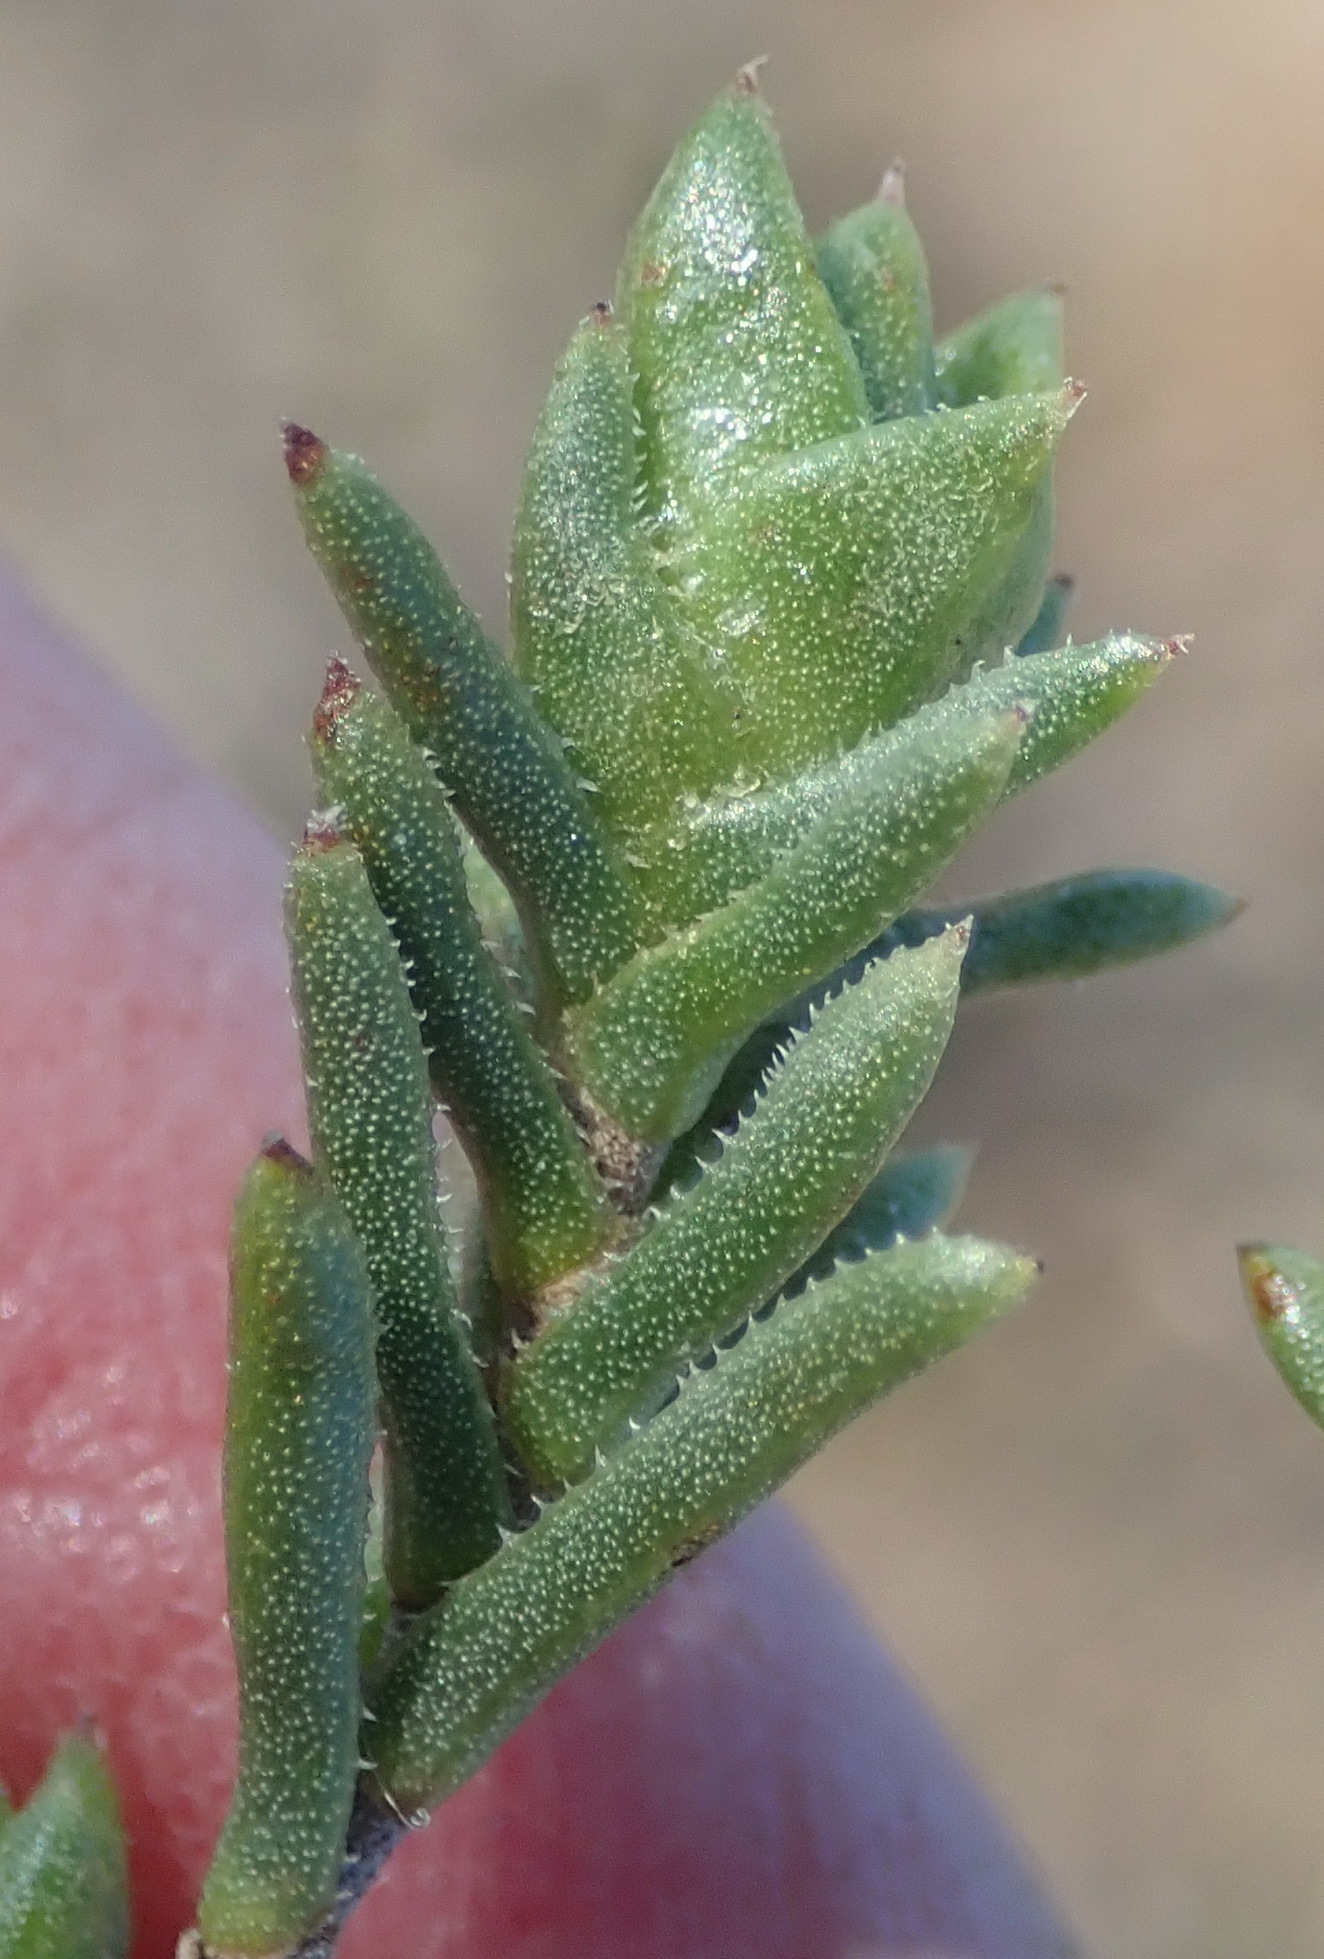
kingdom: Plantae
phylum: Tracheophyta
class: Magnoliopsida
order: Asterales
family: Asteraceae
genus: Pteronia
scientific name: Pteronia elongata
